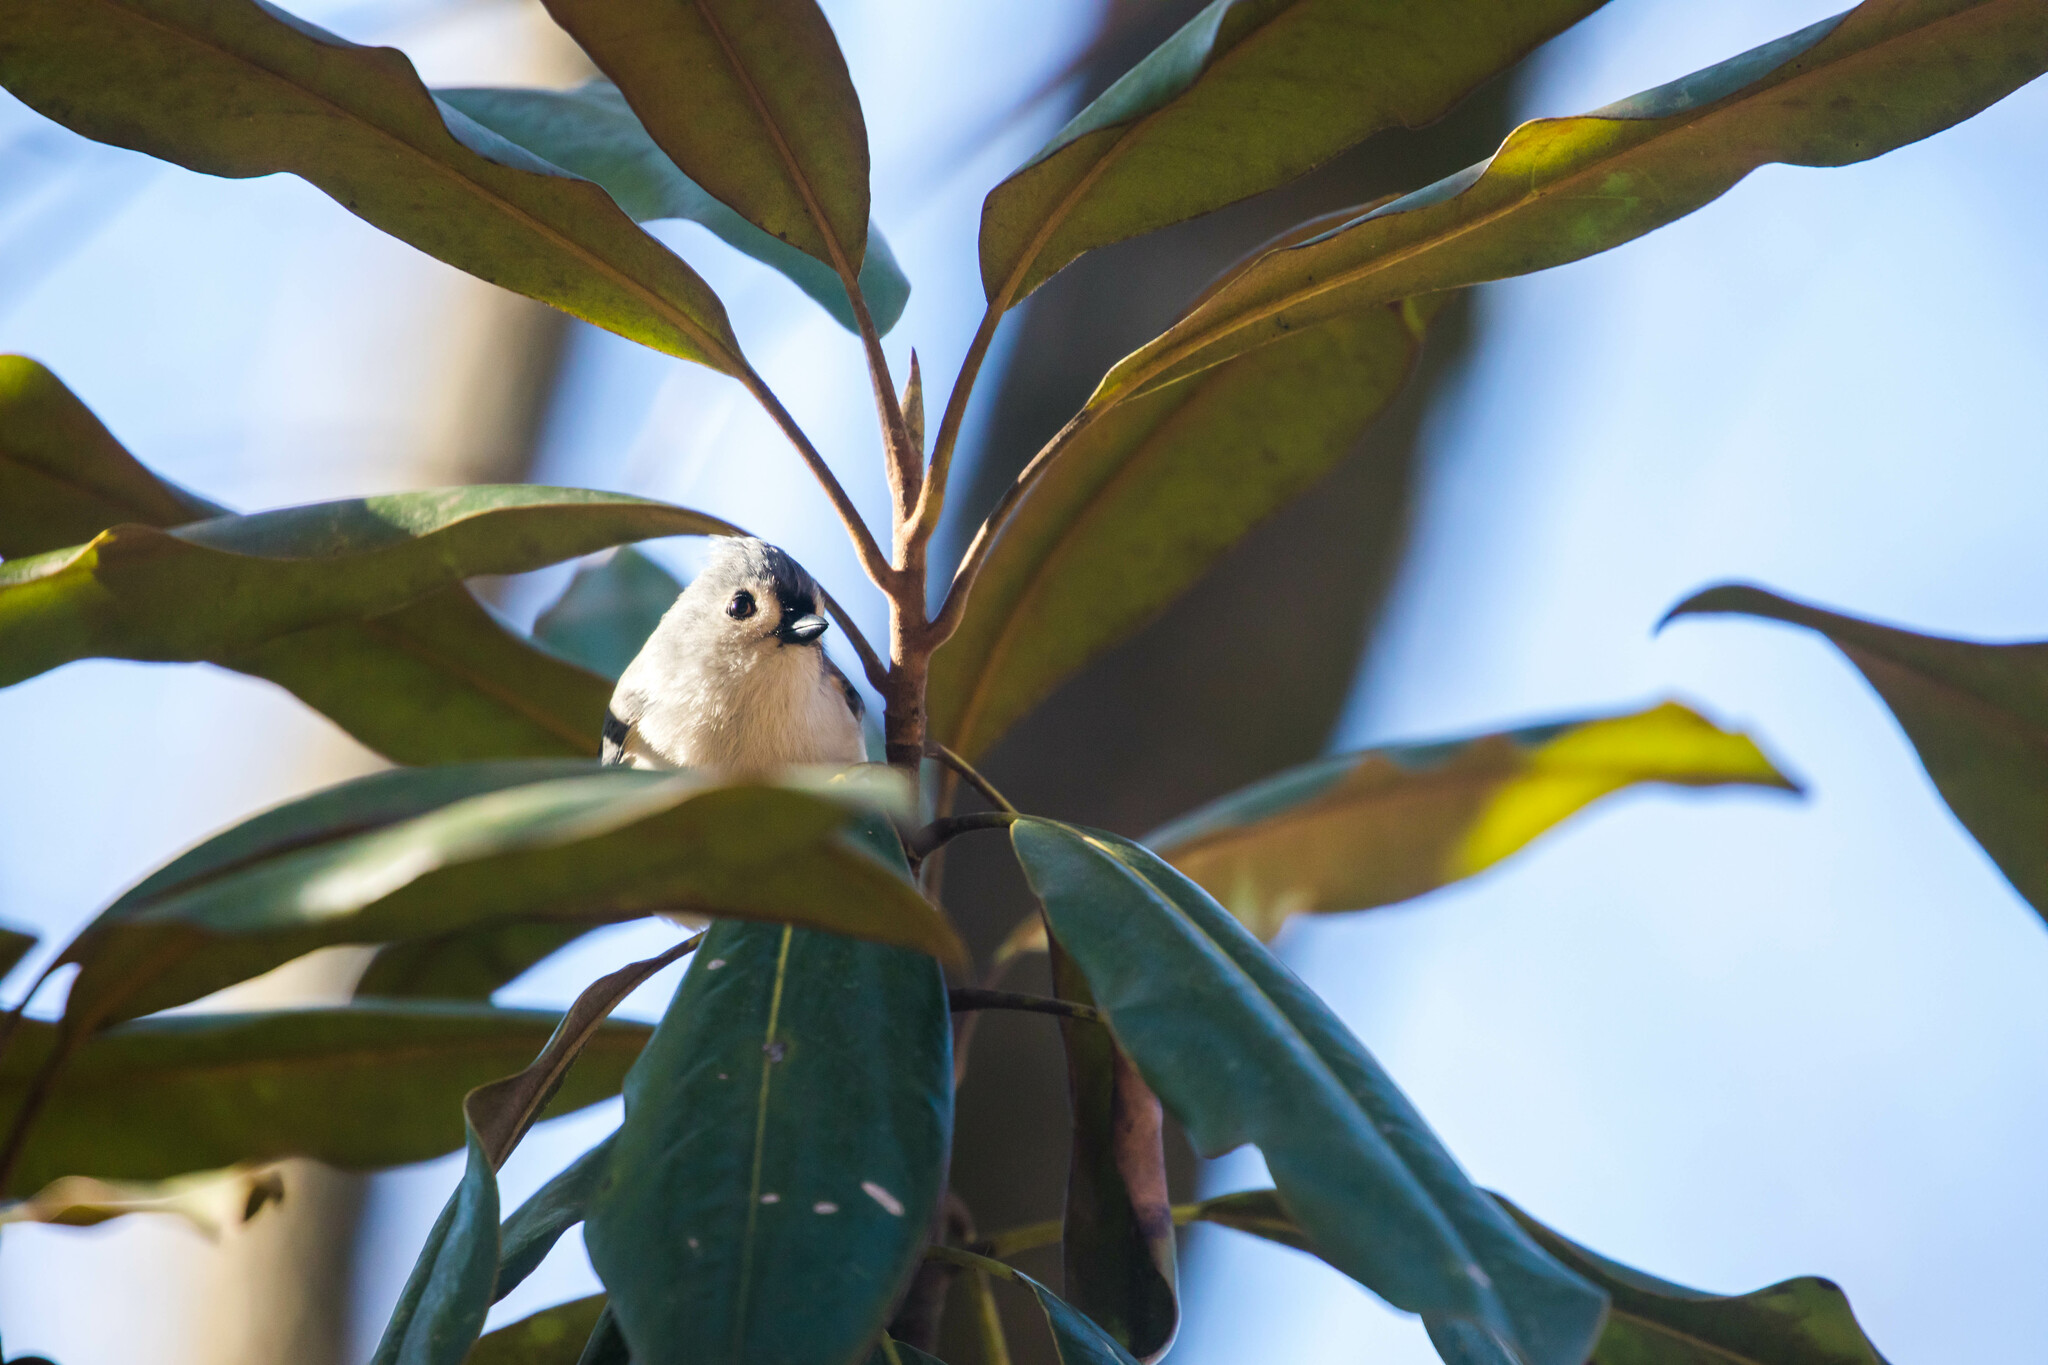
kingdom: Animalia
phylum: Chordata
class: Aves
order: Passeriformes
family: Paridae
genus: Baeolophus
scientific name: Baeolophus bicolor
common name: Tufted titmouse
